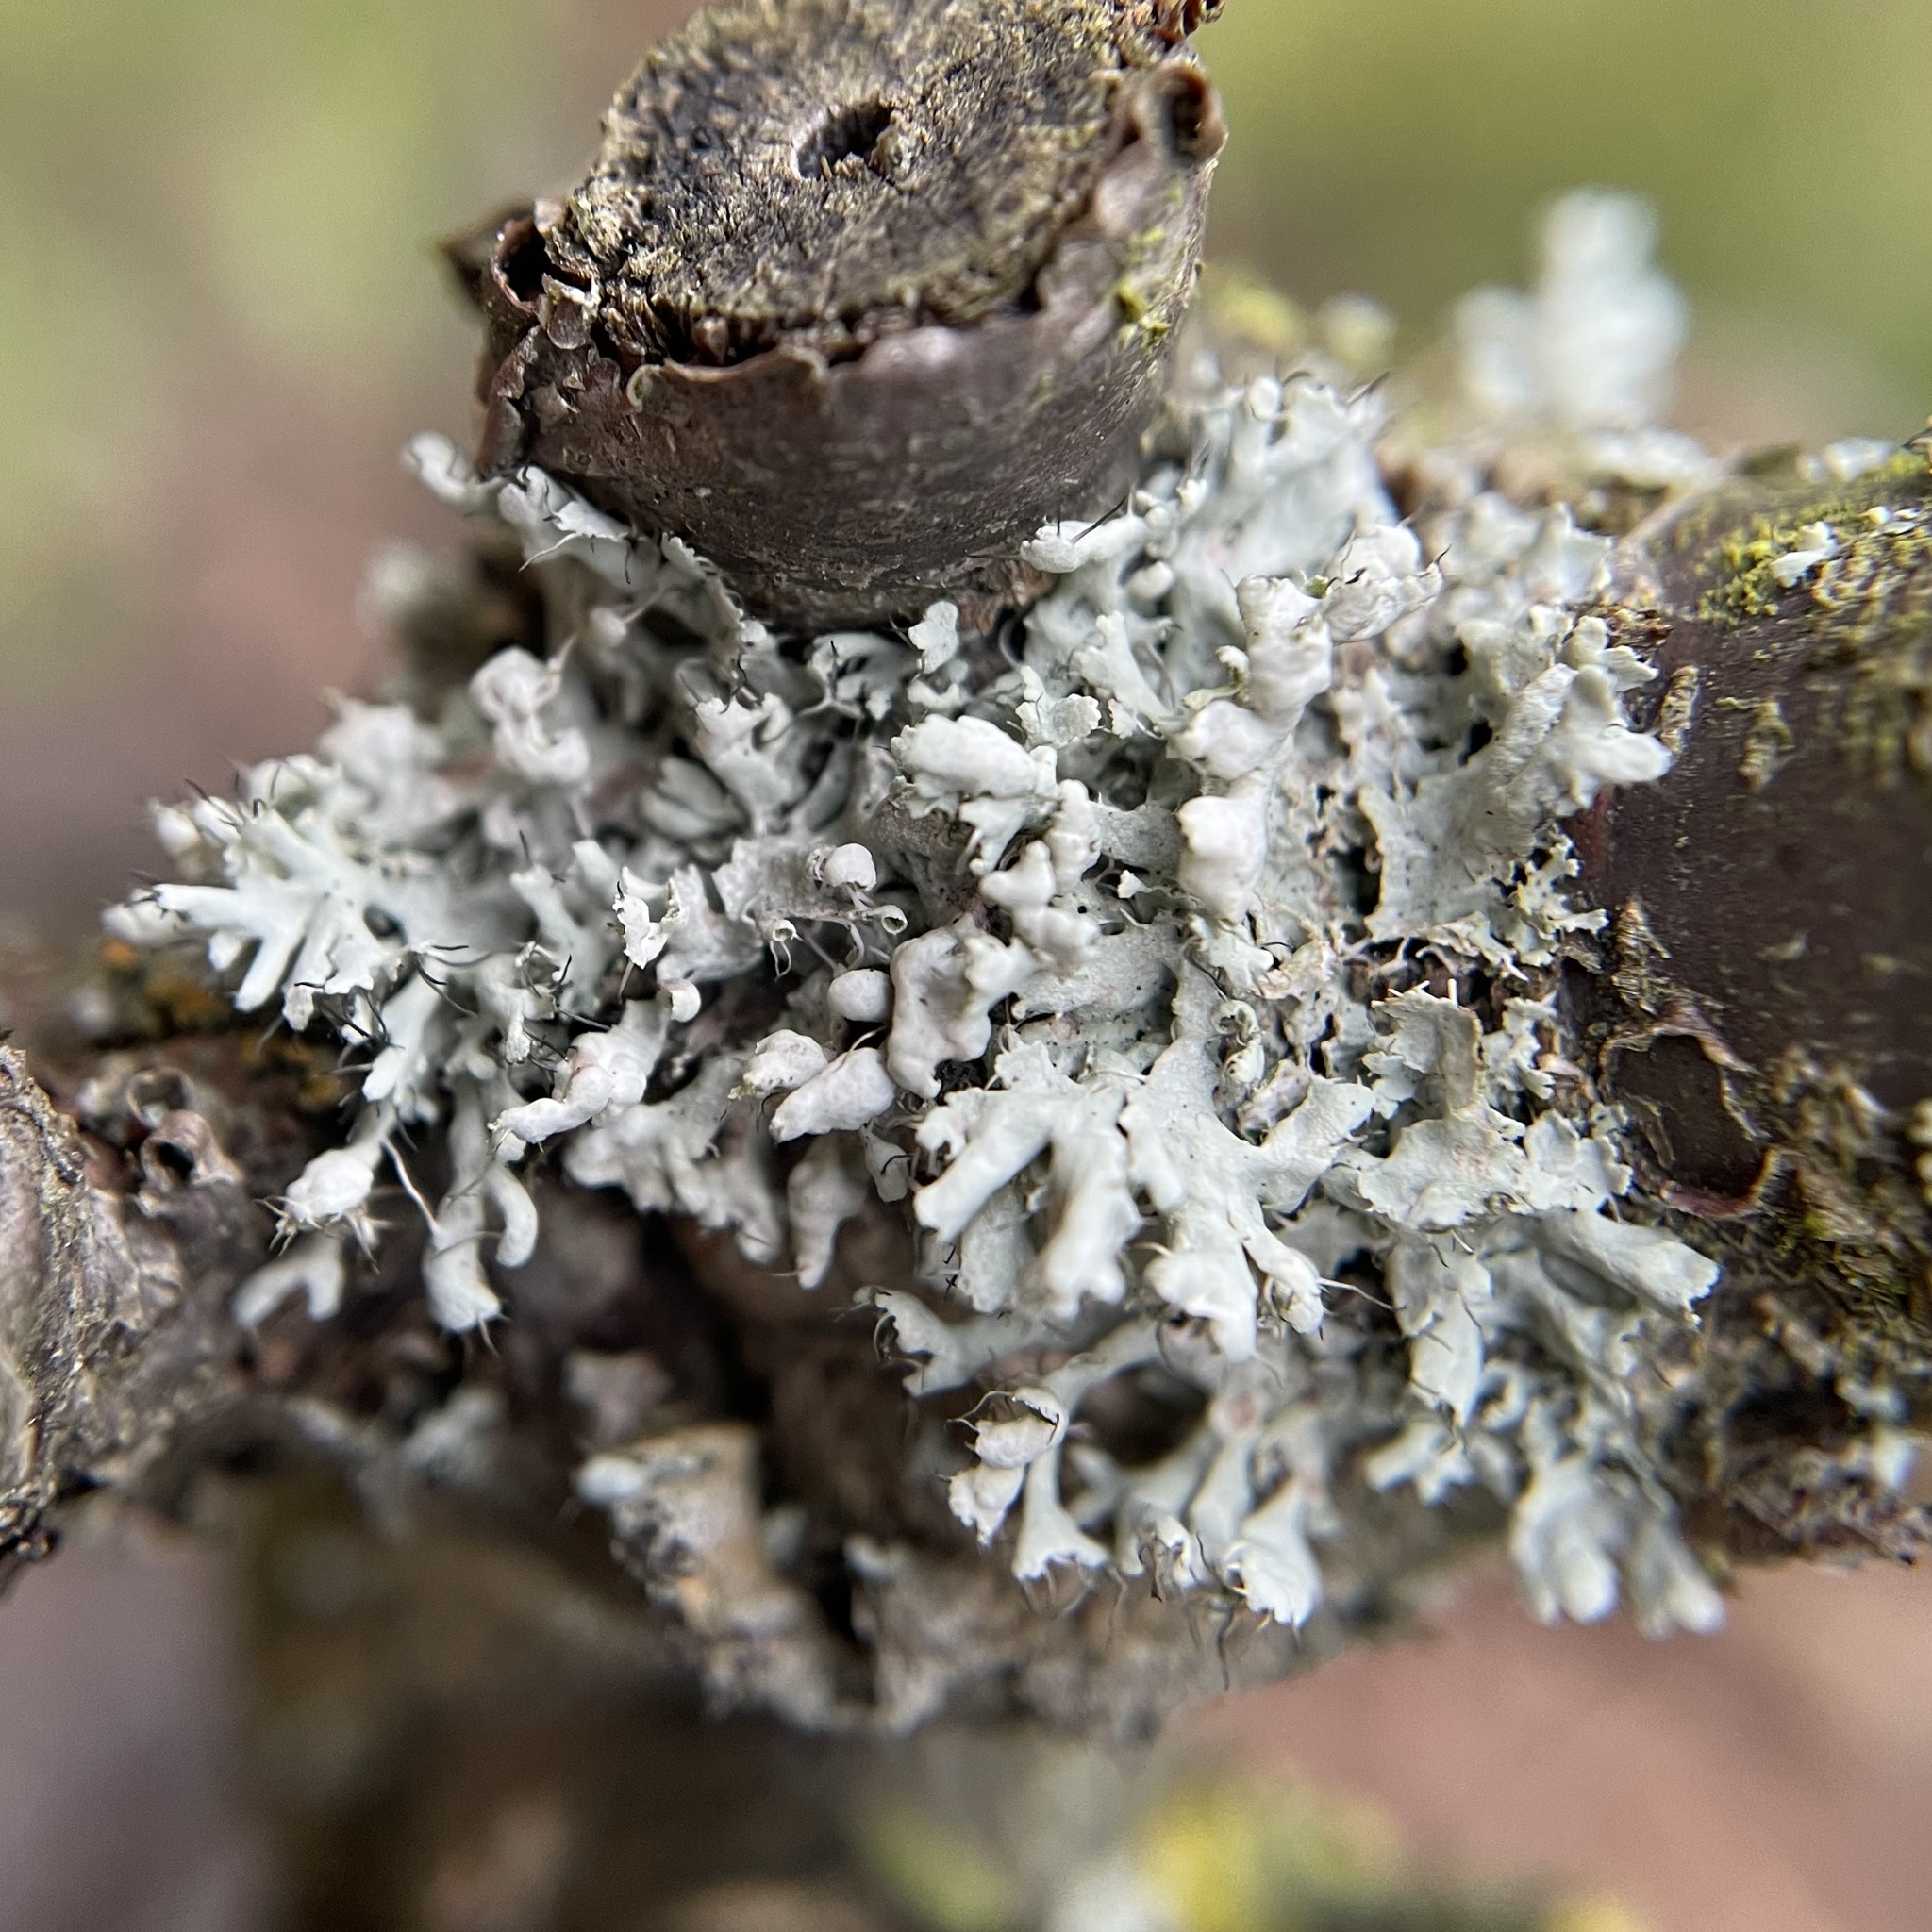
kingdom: Fungi
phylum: Ascomycota
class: Lecanoromycetes
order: Caliciales
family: Physciaceae
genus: Physcia
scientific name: Physcia adscendens
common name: Hooded rosette lichen
